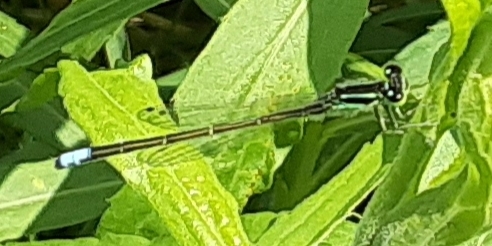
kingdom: Animalia
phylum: Arthropoda
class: Insecta
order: Odonata
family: Coenagrionidae
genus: Ischnura
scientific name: Ischnura verticalis
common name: Eastern forktail
